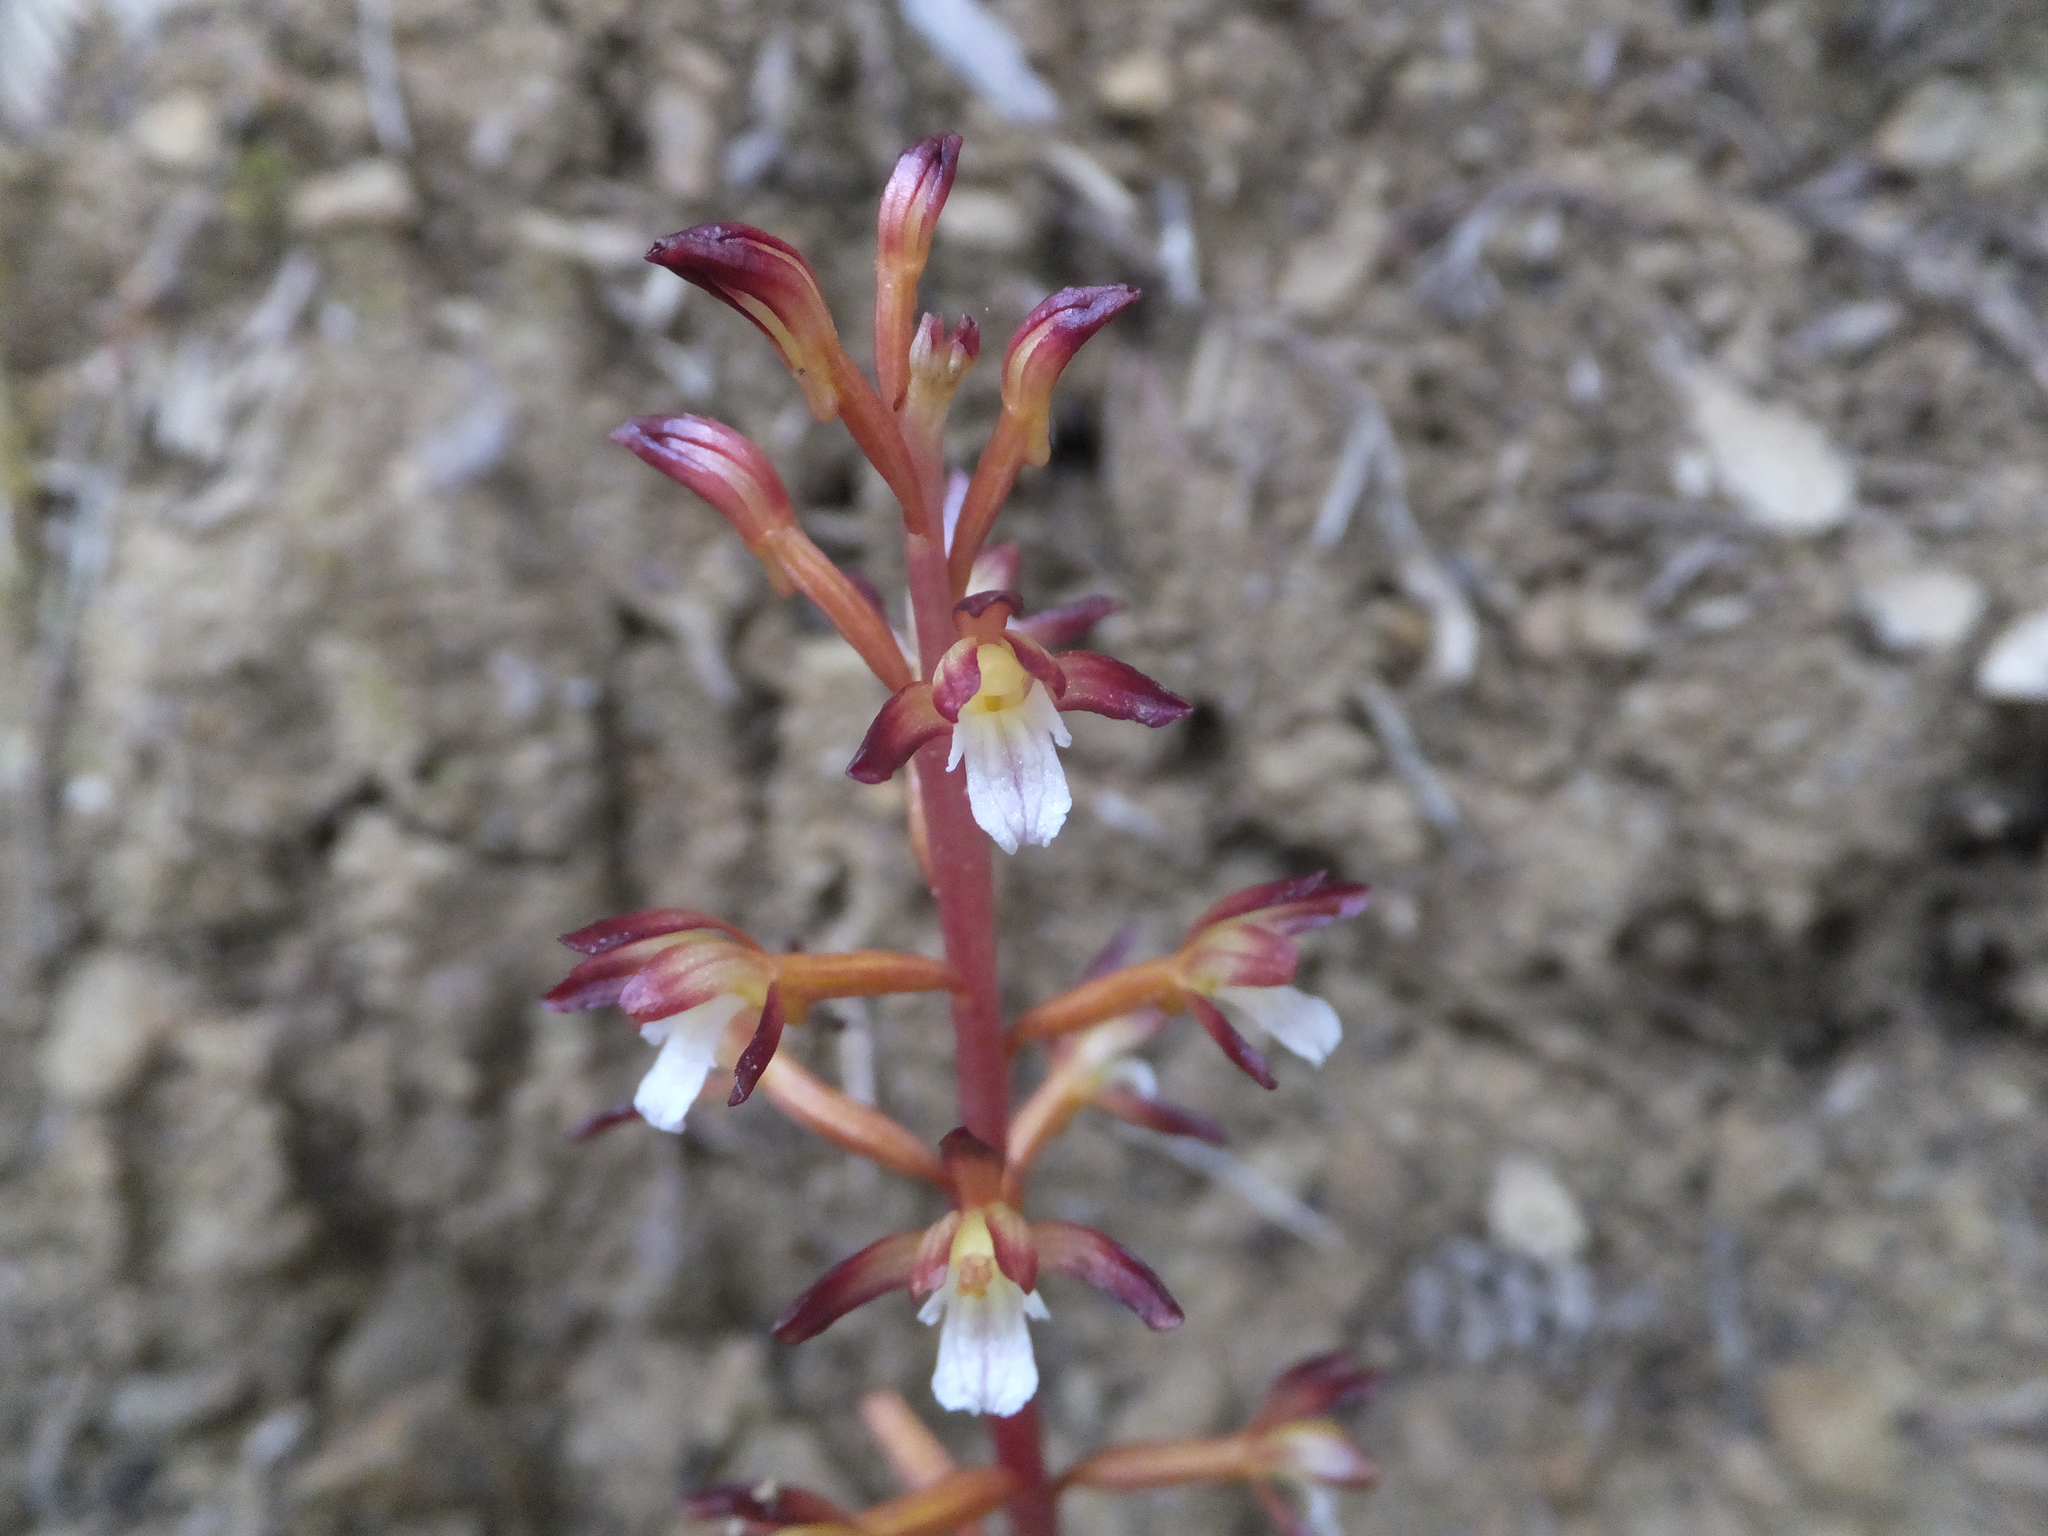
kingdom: Plantae
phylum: Tracheophyta
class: Liliopsida
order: Asparagales
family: Orchidaceae
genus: Corallorhiza
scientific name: Corallorhiza maculata
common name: Spotted coralroot
